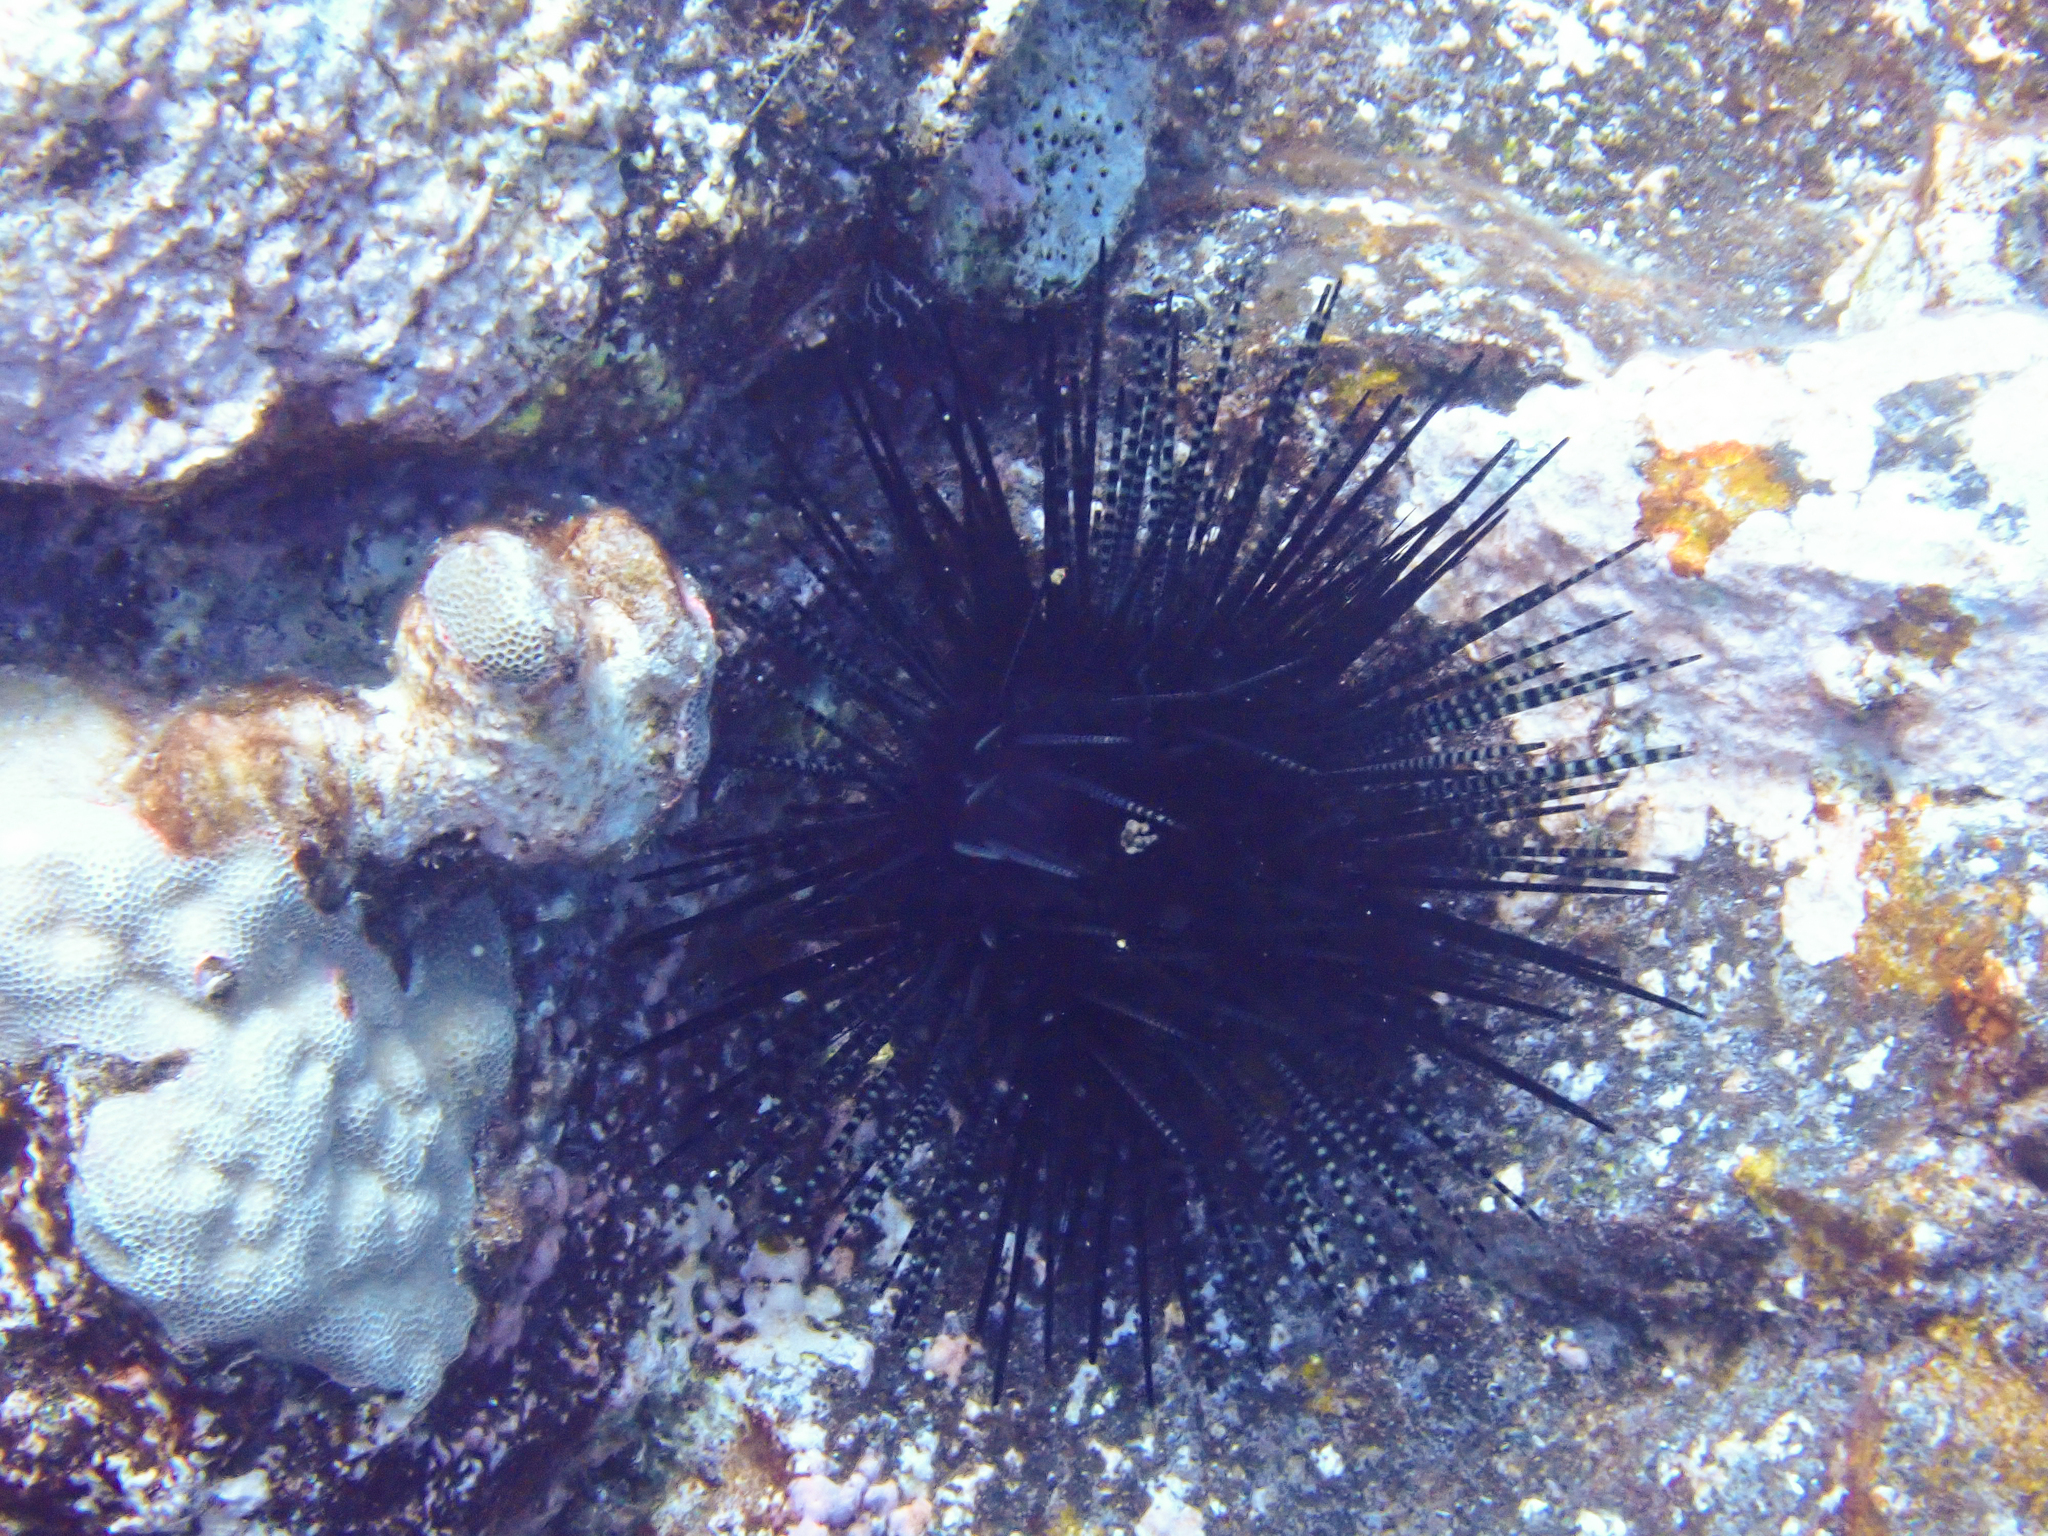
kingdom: Animalia
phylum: Echinodermata
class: Echinoidea
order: Diadematoida
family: Diadematidae
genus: Echinothrix
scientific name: Echinothrix calamaris
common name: Banded sea urchin
